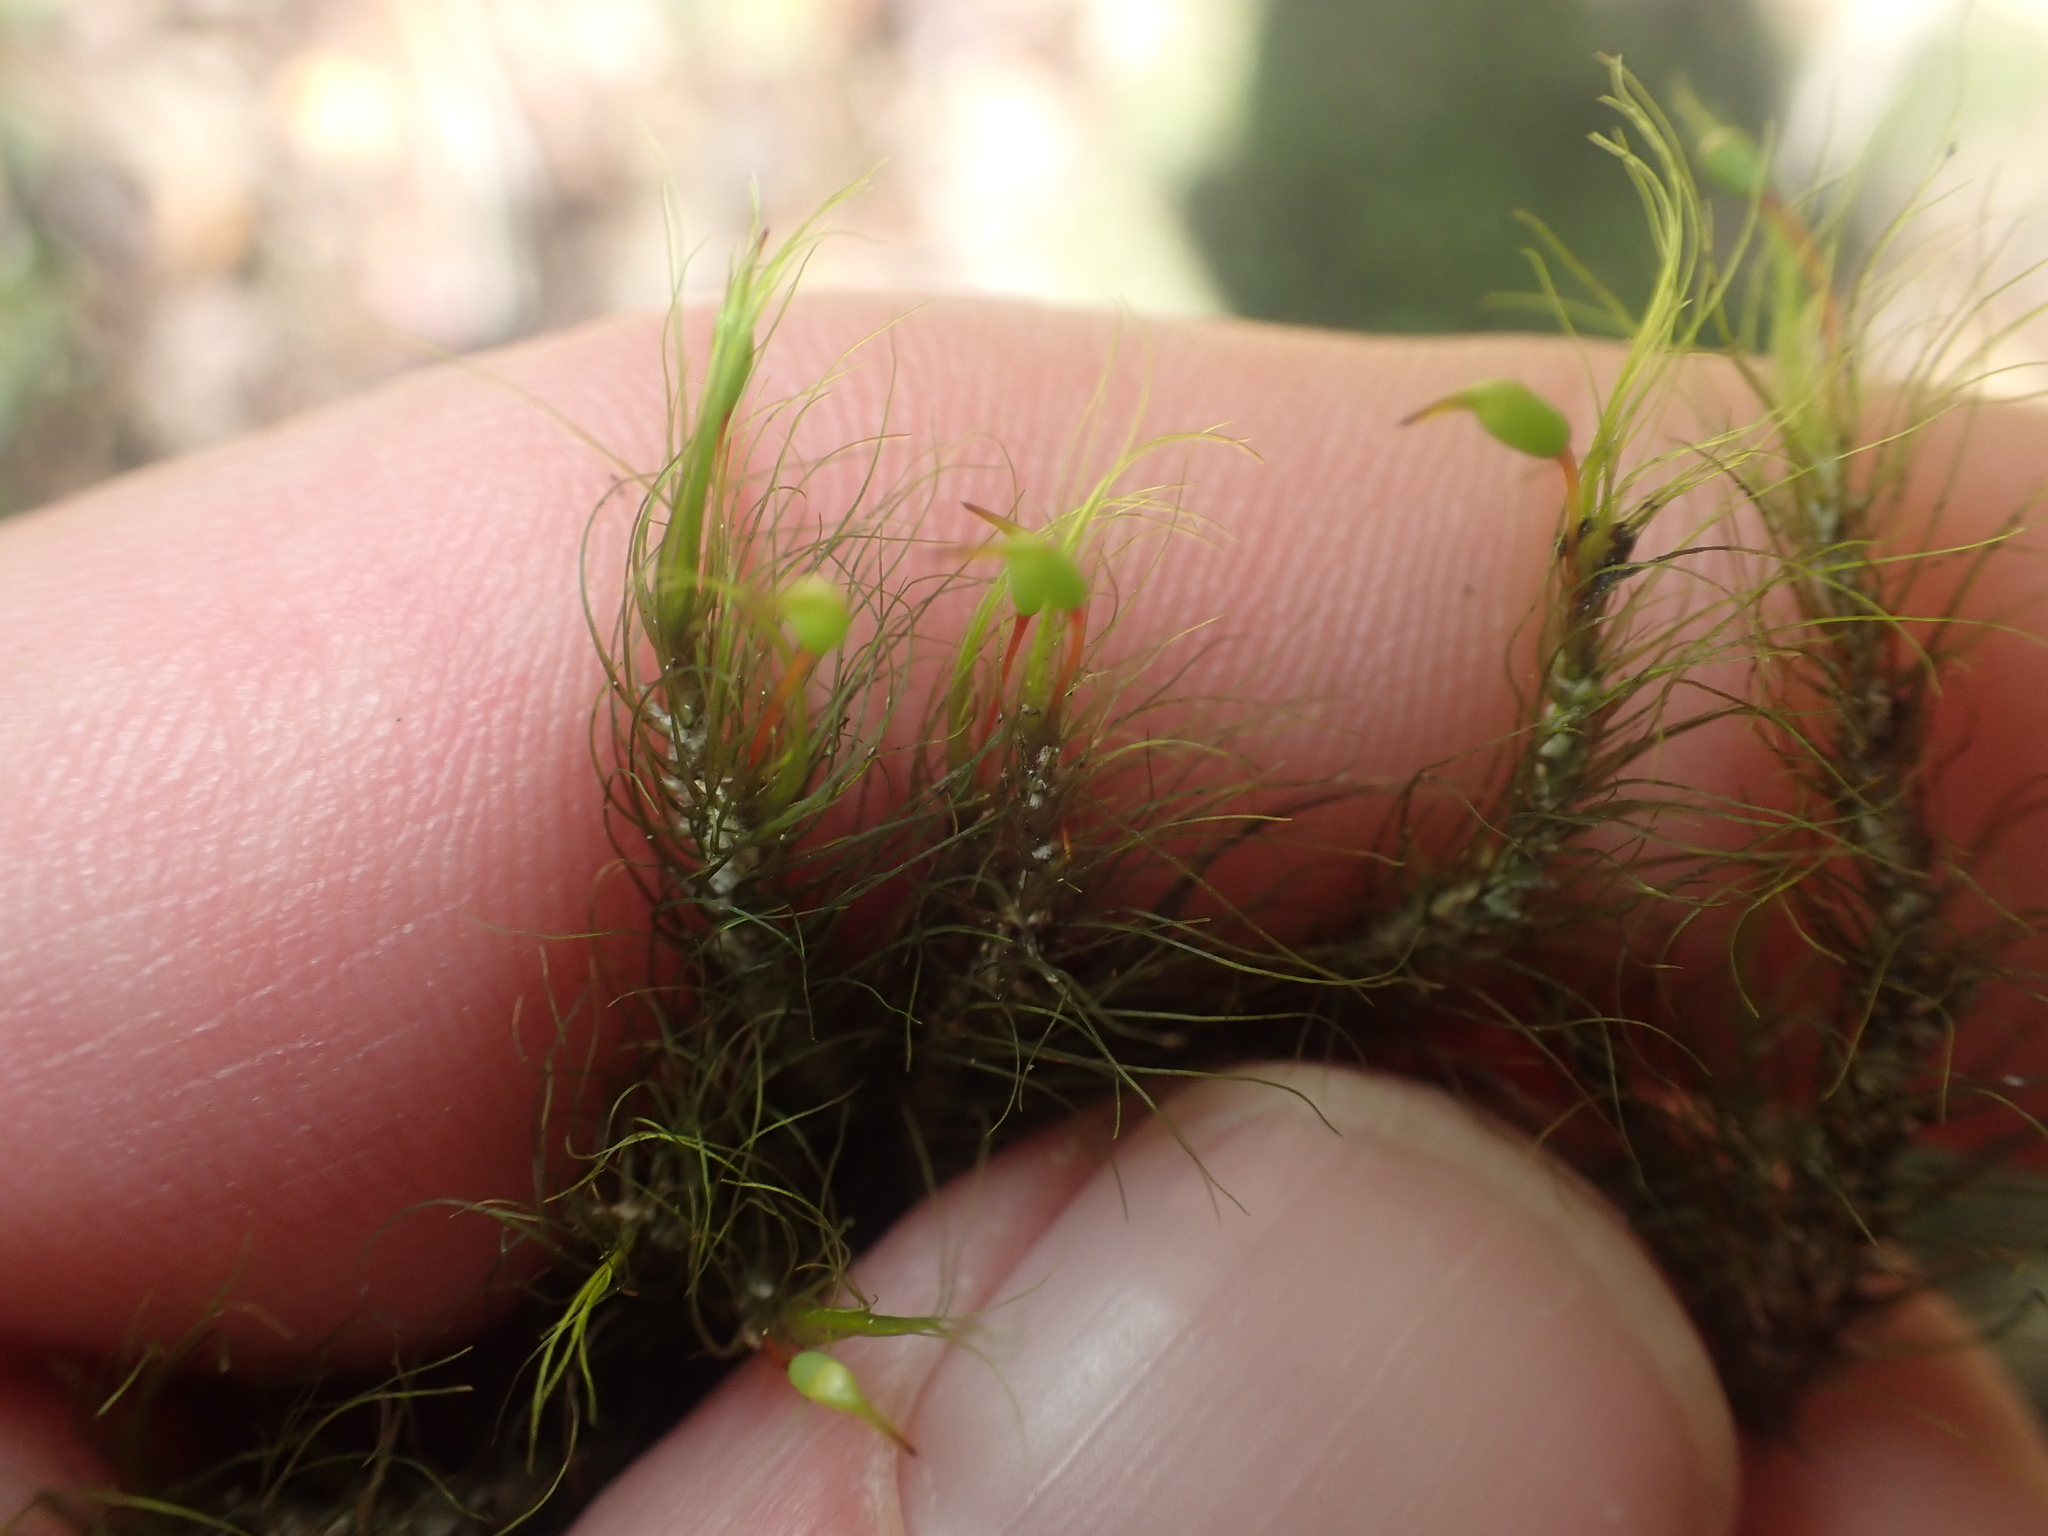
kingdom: Plantae
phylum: Bryophyta
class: Bryopsida
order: Dicranales
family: Dicranaceae
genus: Dicranoloma
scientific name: Dicranoloma menziesii
